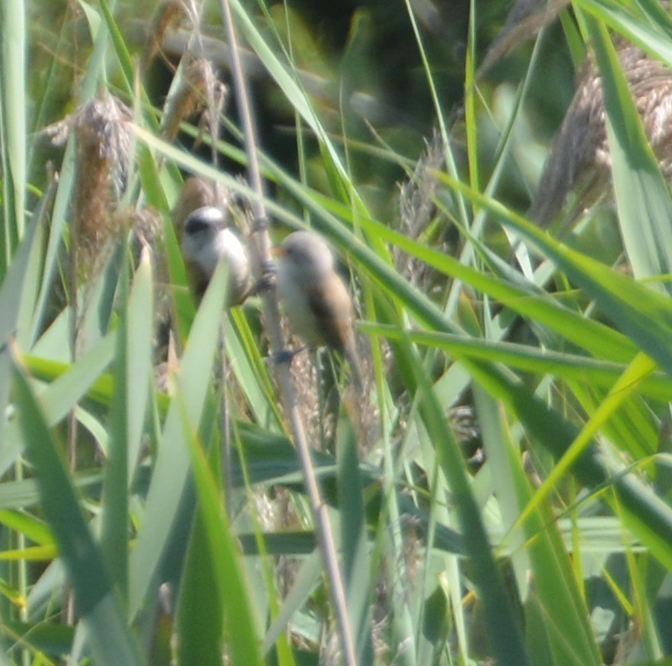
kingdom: Animalia
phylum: Chordata
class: Aves
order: Passeriformes
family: Remizidae
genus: Remiz
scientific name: Remiz pendulinus
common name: Eurasian penduline tit
